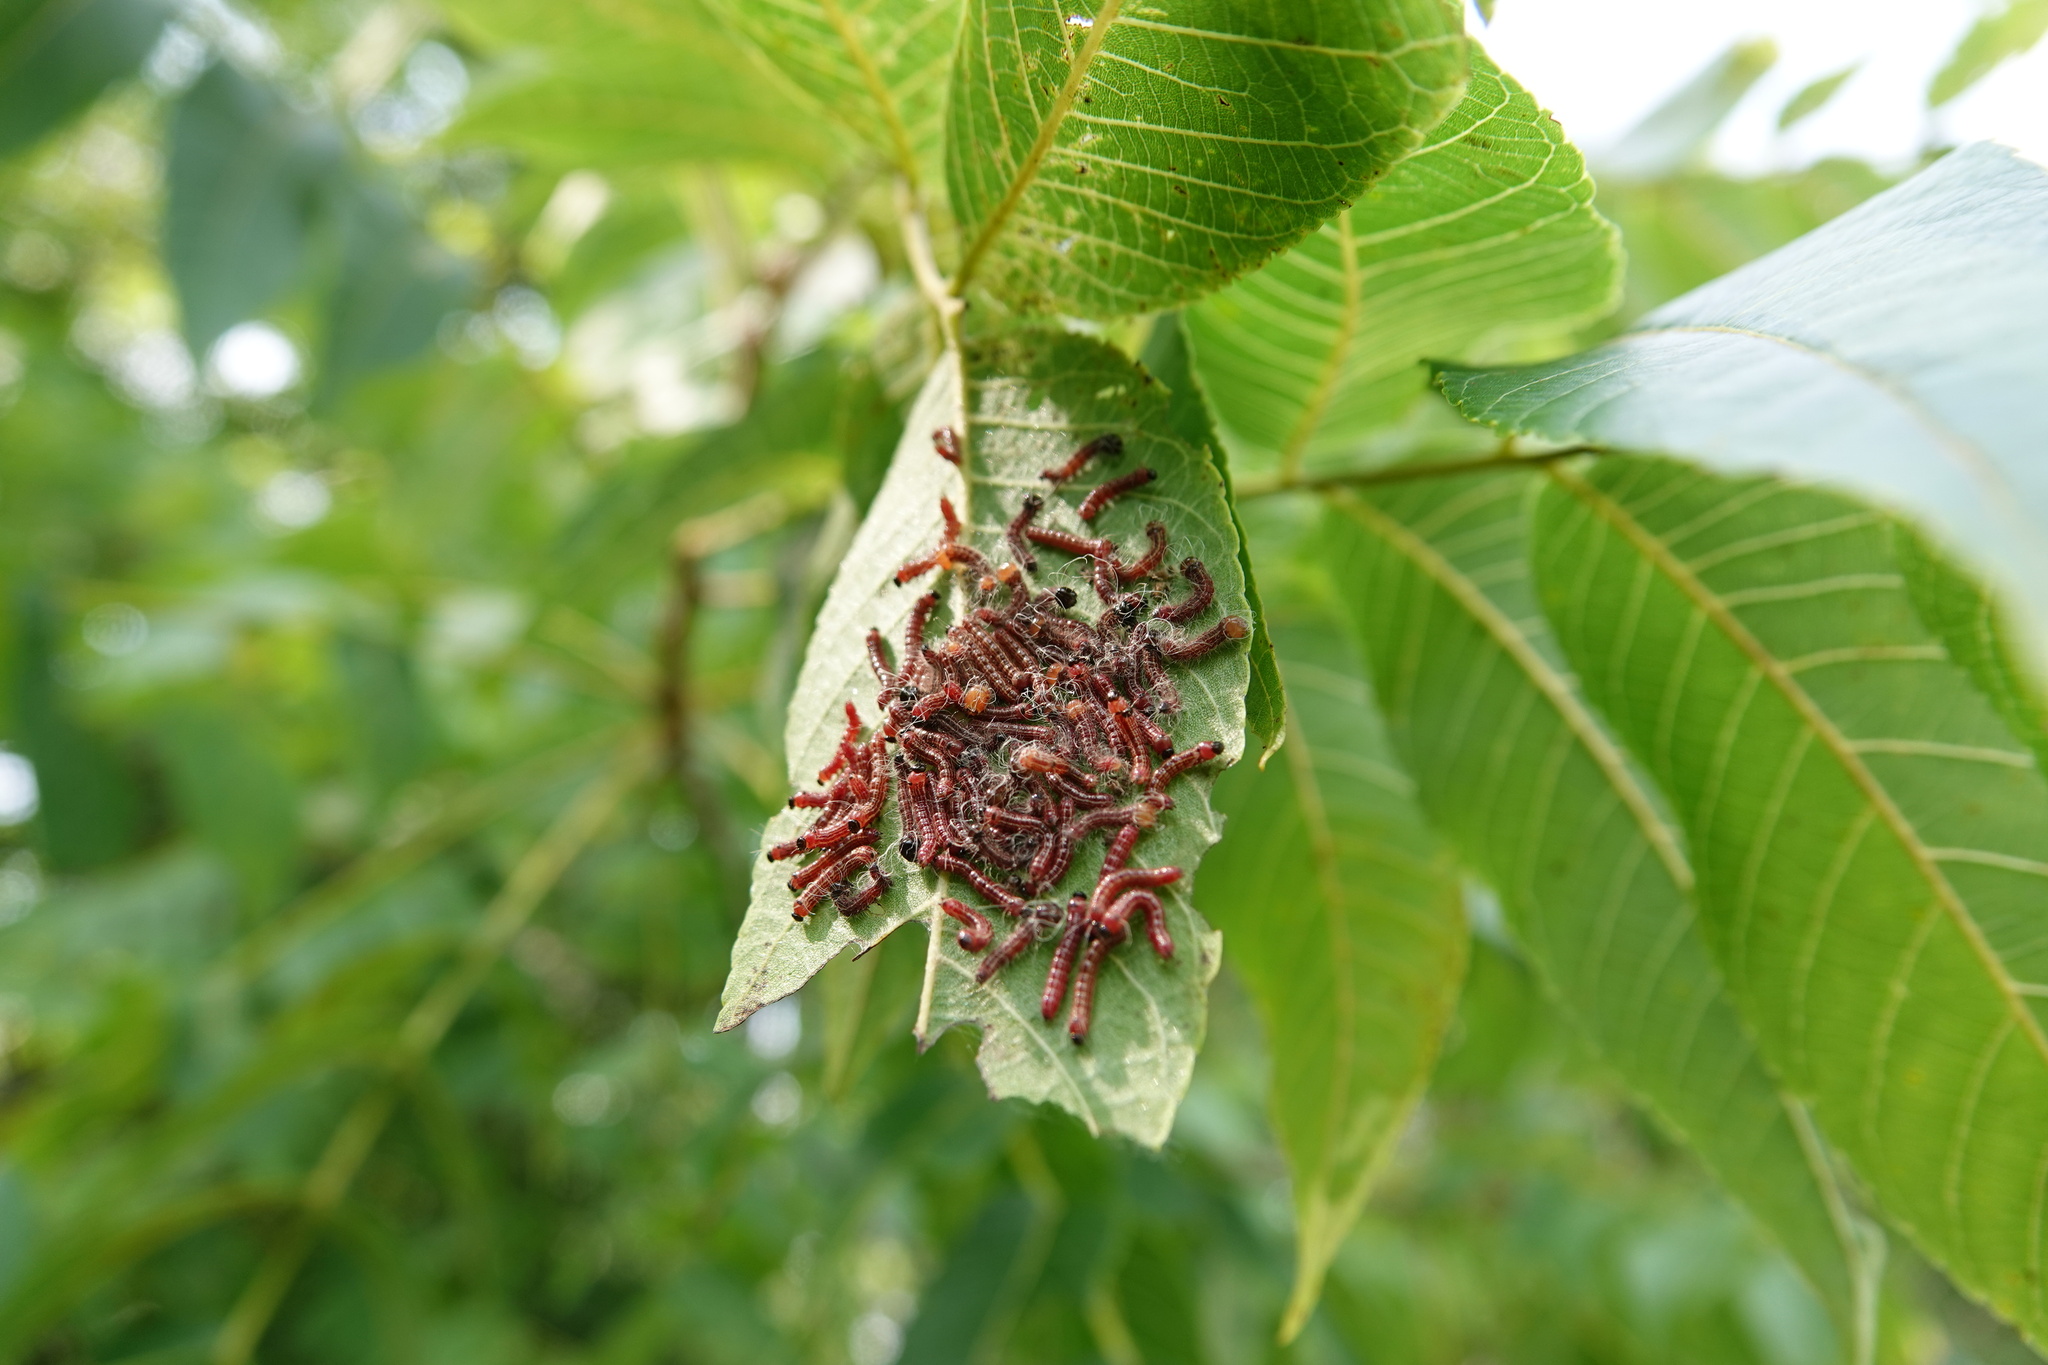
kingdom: Animalia
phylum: Arthropoda
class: Insecta
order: Lepidoptera
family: Notodontidae
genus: Datana
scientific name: Datana integerrima
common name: Walnut caterpillar
